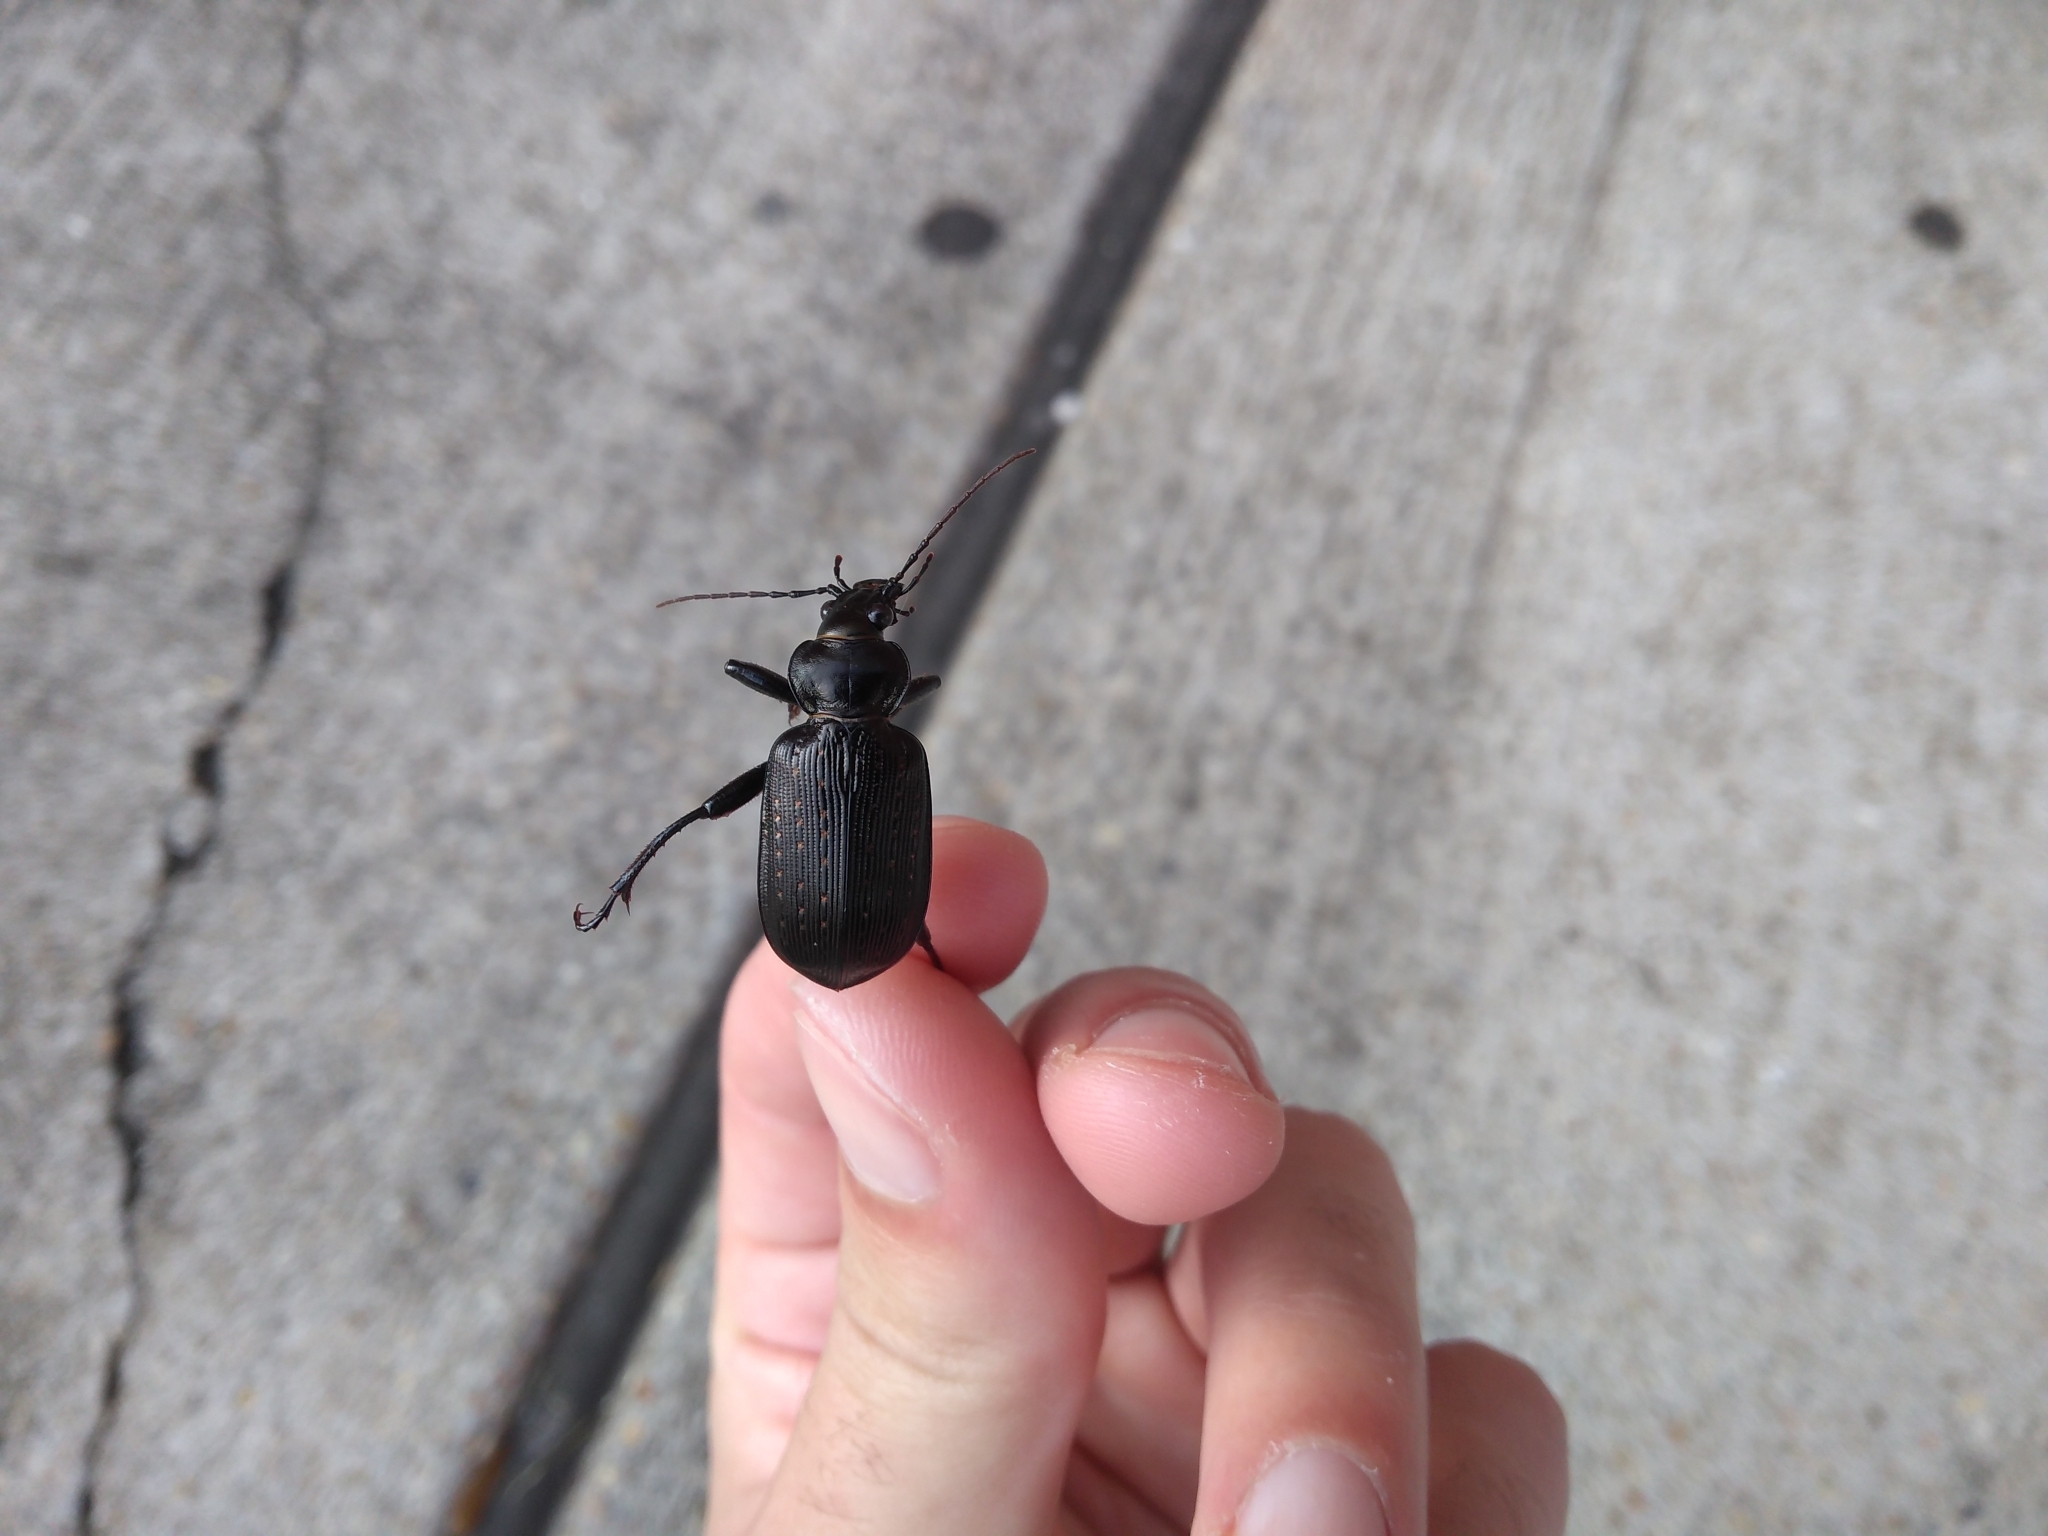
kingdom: Animalia
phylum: Arthropoda
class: Insecta
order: Coleoptera
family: Carabidae
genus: Calosoma
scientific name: Calosoma sayi
